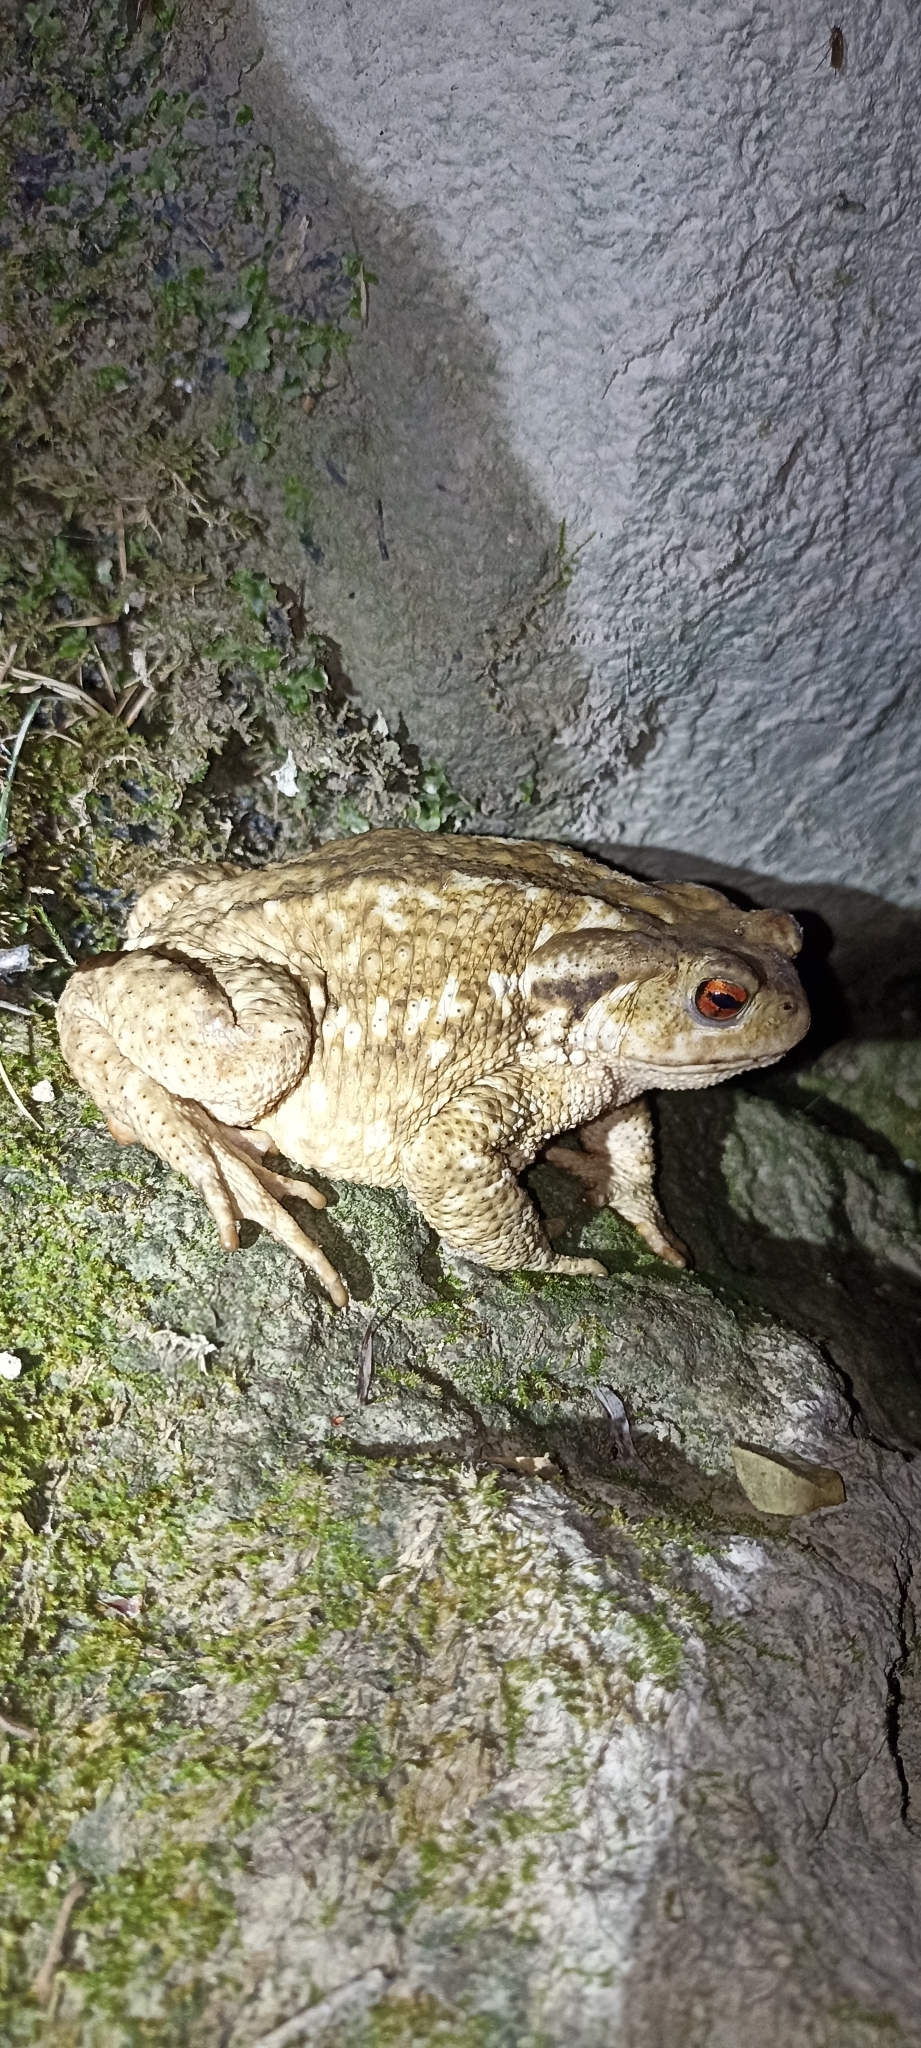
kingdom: Animalia
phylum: Chordata
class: Amphibia
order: Anura
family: Bufonidae
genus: Bufo
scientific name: Bufo spinosus
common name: Western common toad
